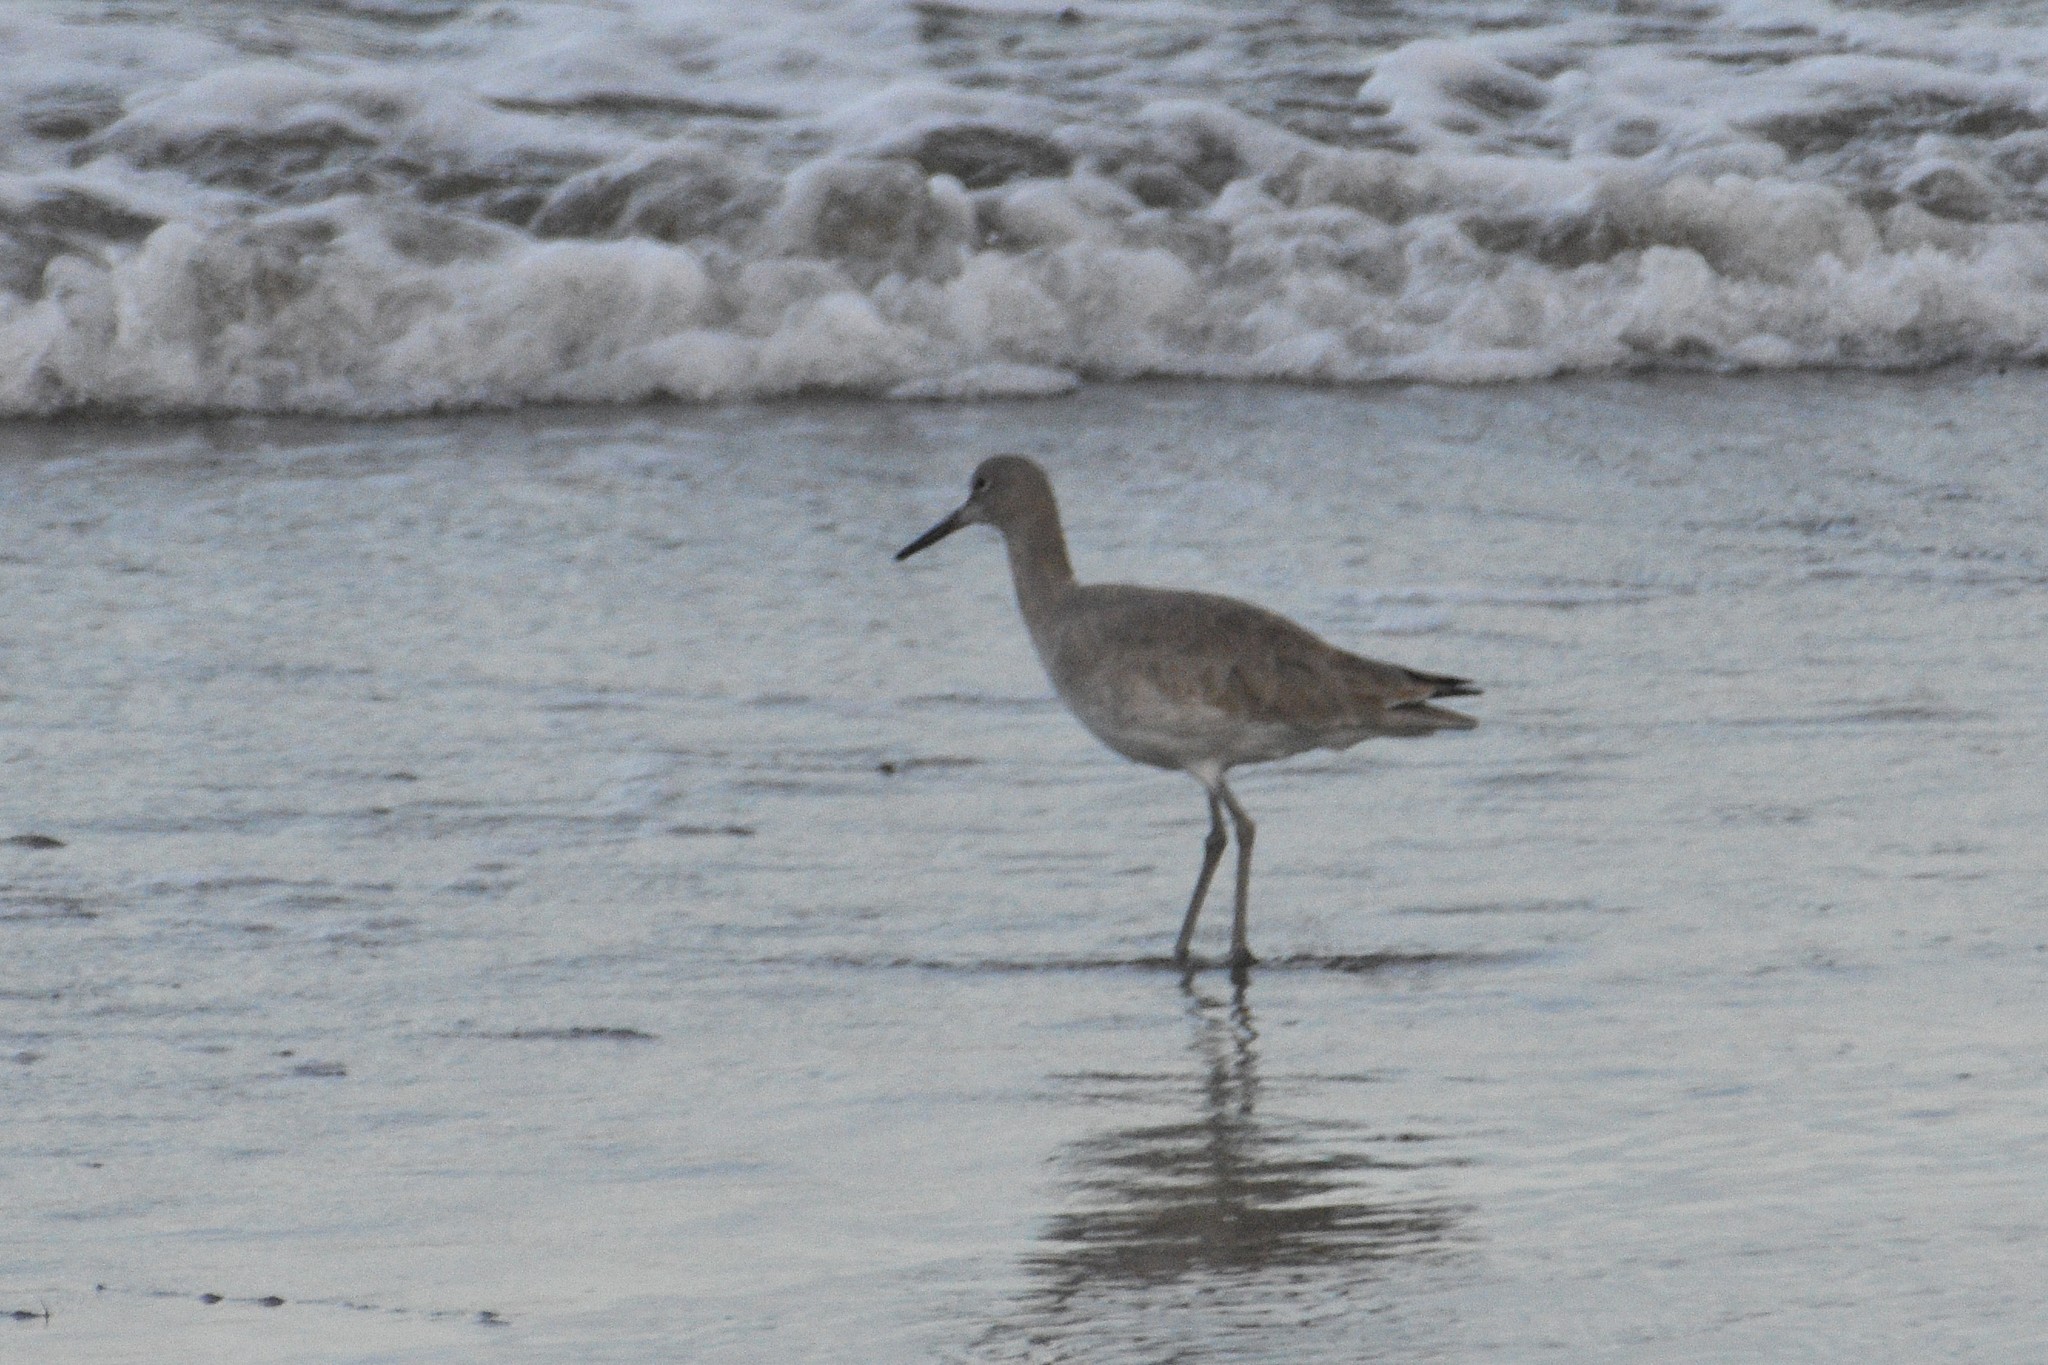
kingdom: Animalia
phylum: Chordata
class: Aves
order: Charadriiformes
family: Scolopacidae
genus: Tringa
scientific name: Tringa semipalmata
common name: Willet
